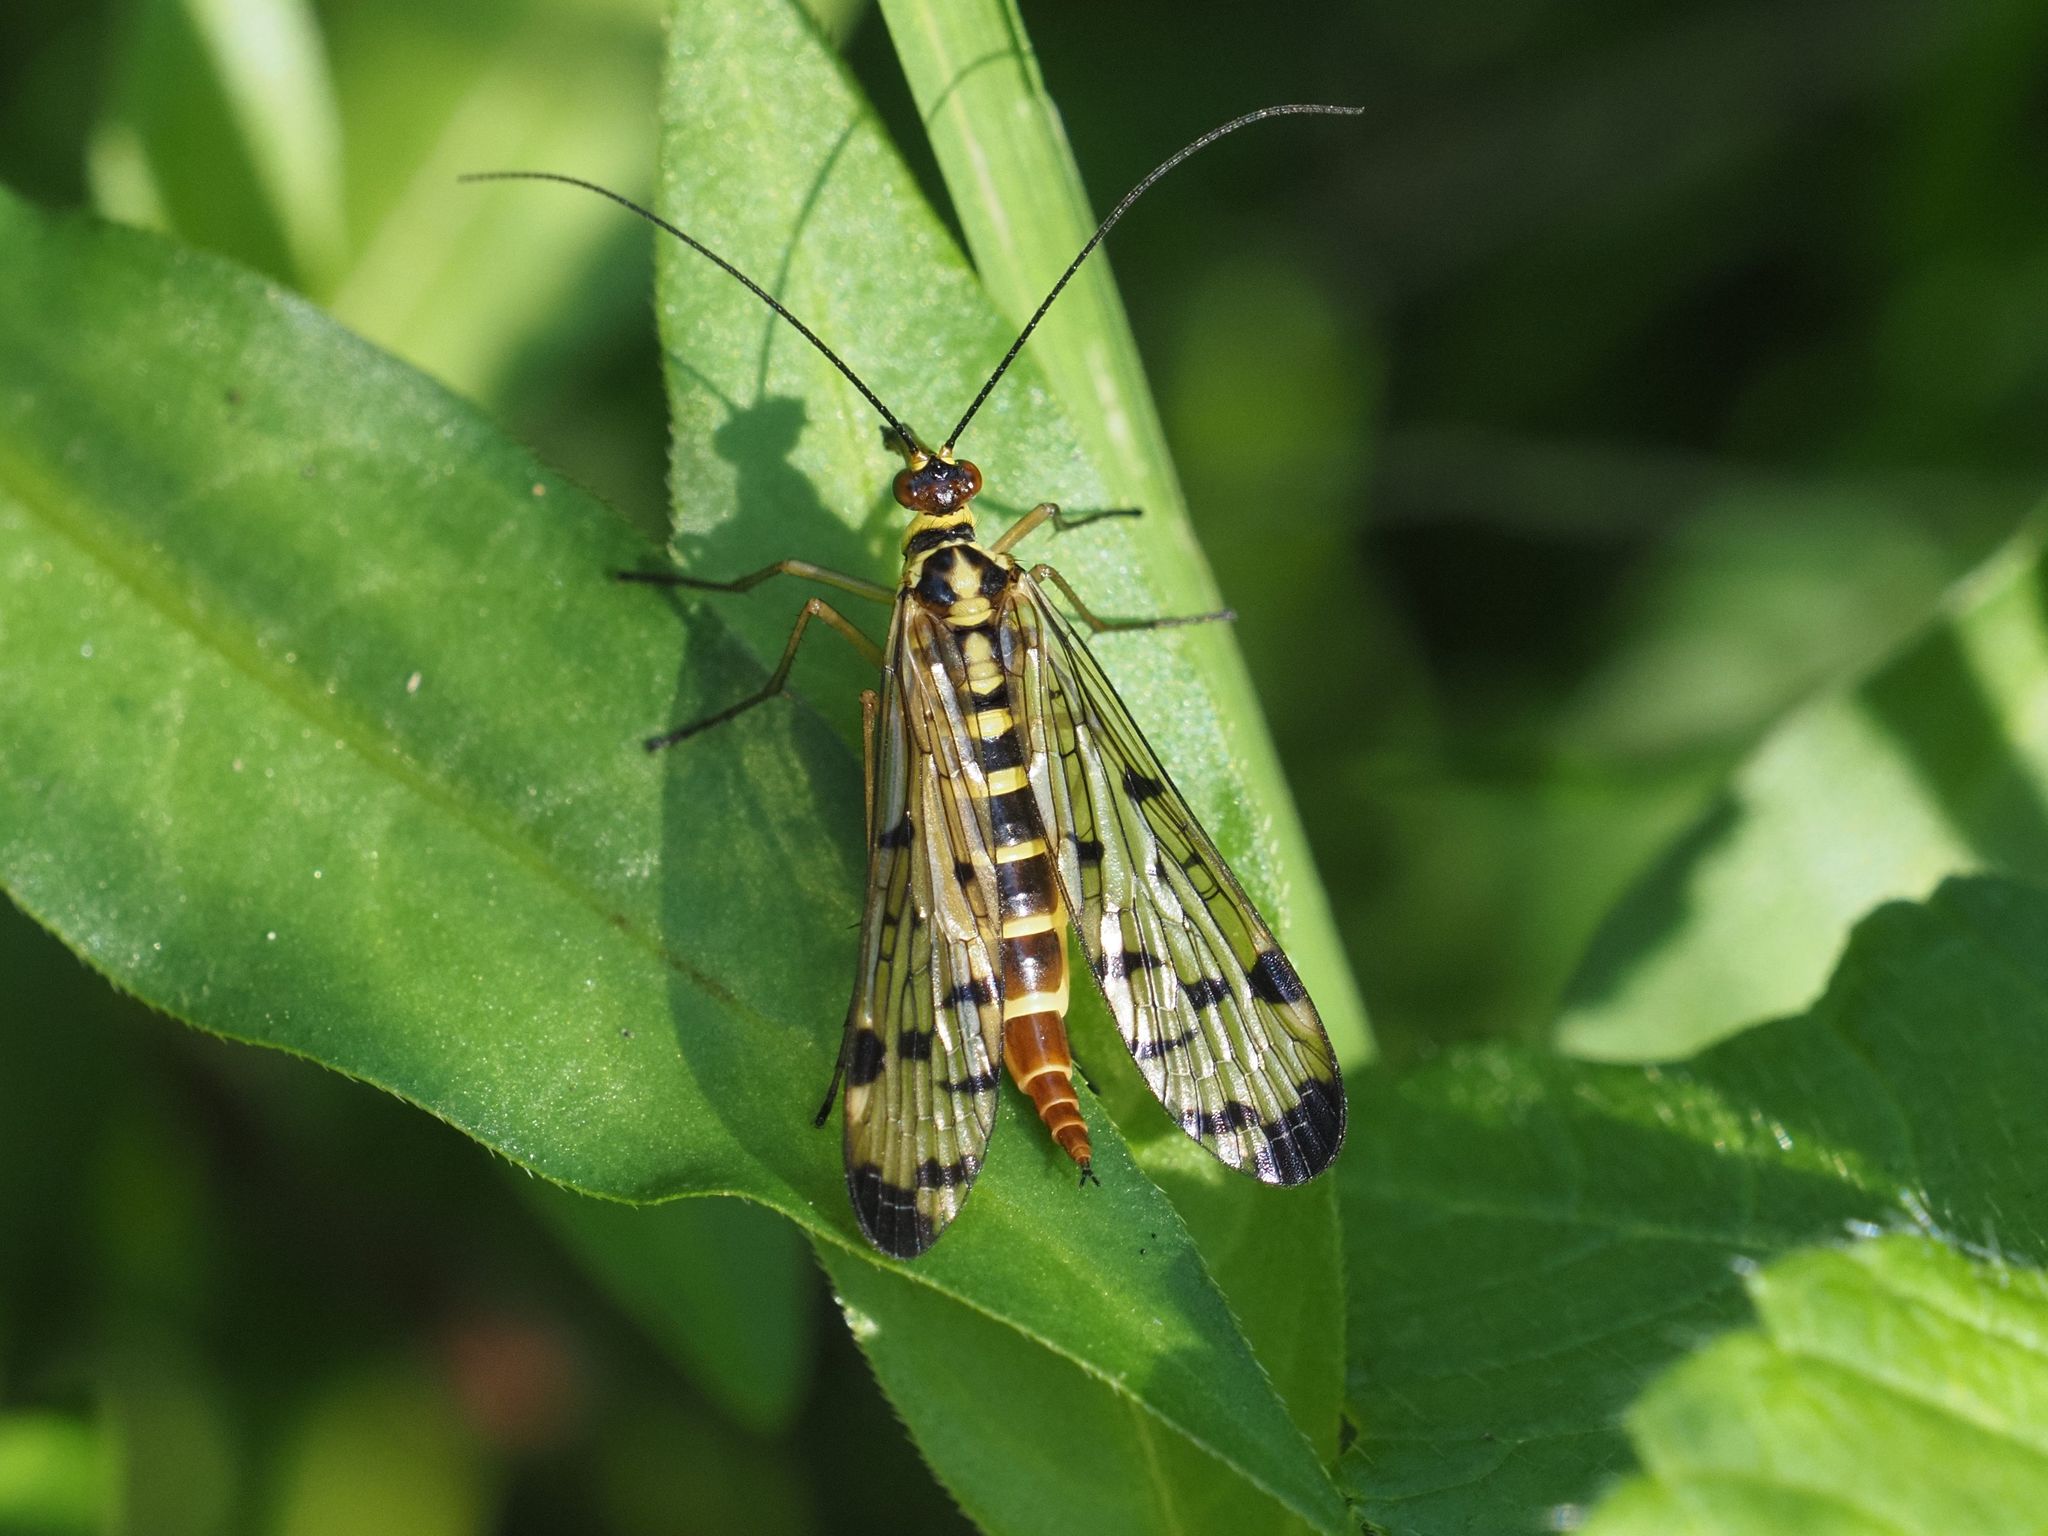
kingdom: Animalia
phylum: Arthropoda
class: Insecta
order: Mecoptera
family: Panorpidae
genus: Panorpa
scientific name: Panorpa germanica
